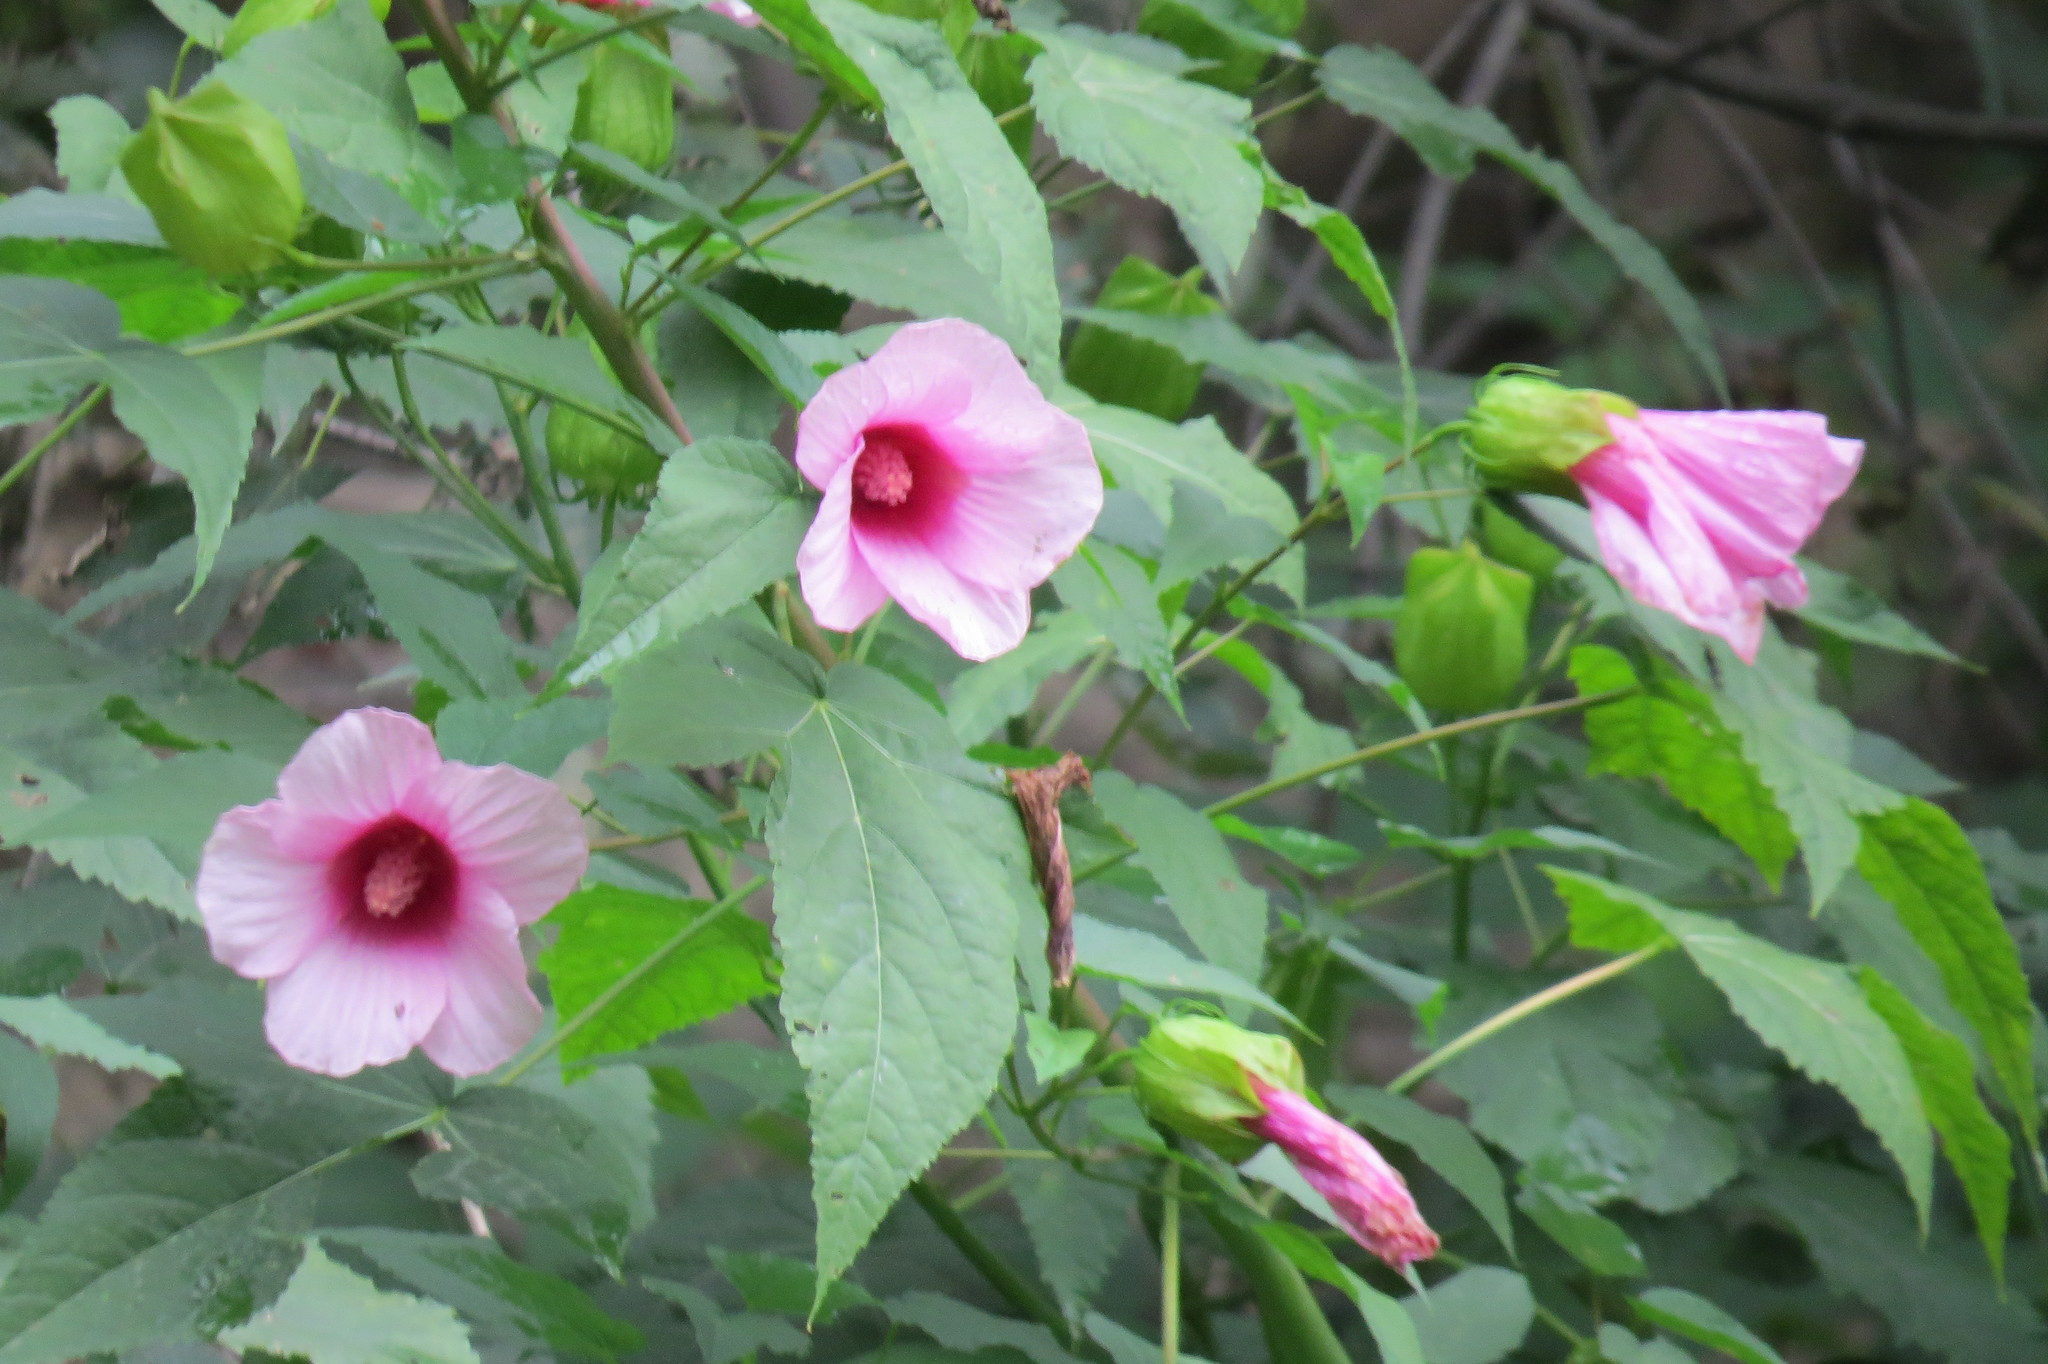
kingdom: Plantae
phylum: Tracheophyta
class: Magnoliopsida
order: Malvales
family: Malvaceae
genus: Hibiscus
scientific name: Hibiscus laevis
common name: Scarlet rose-mallow
